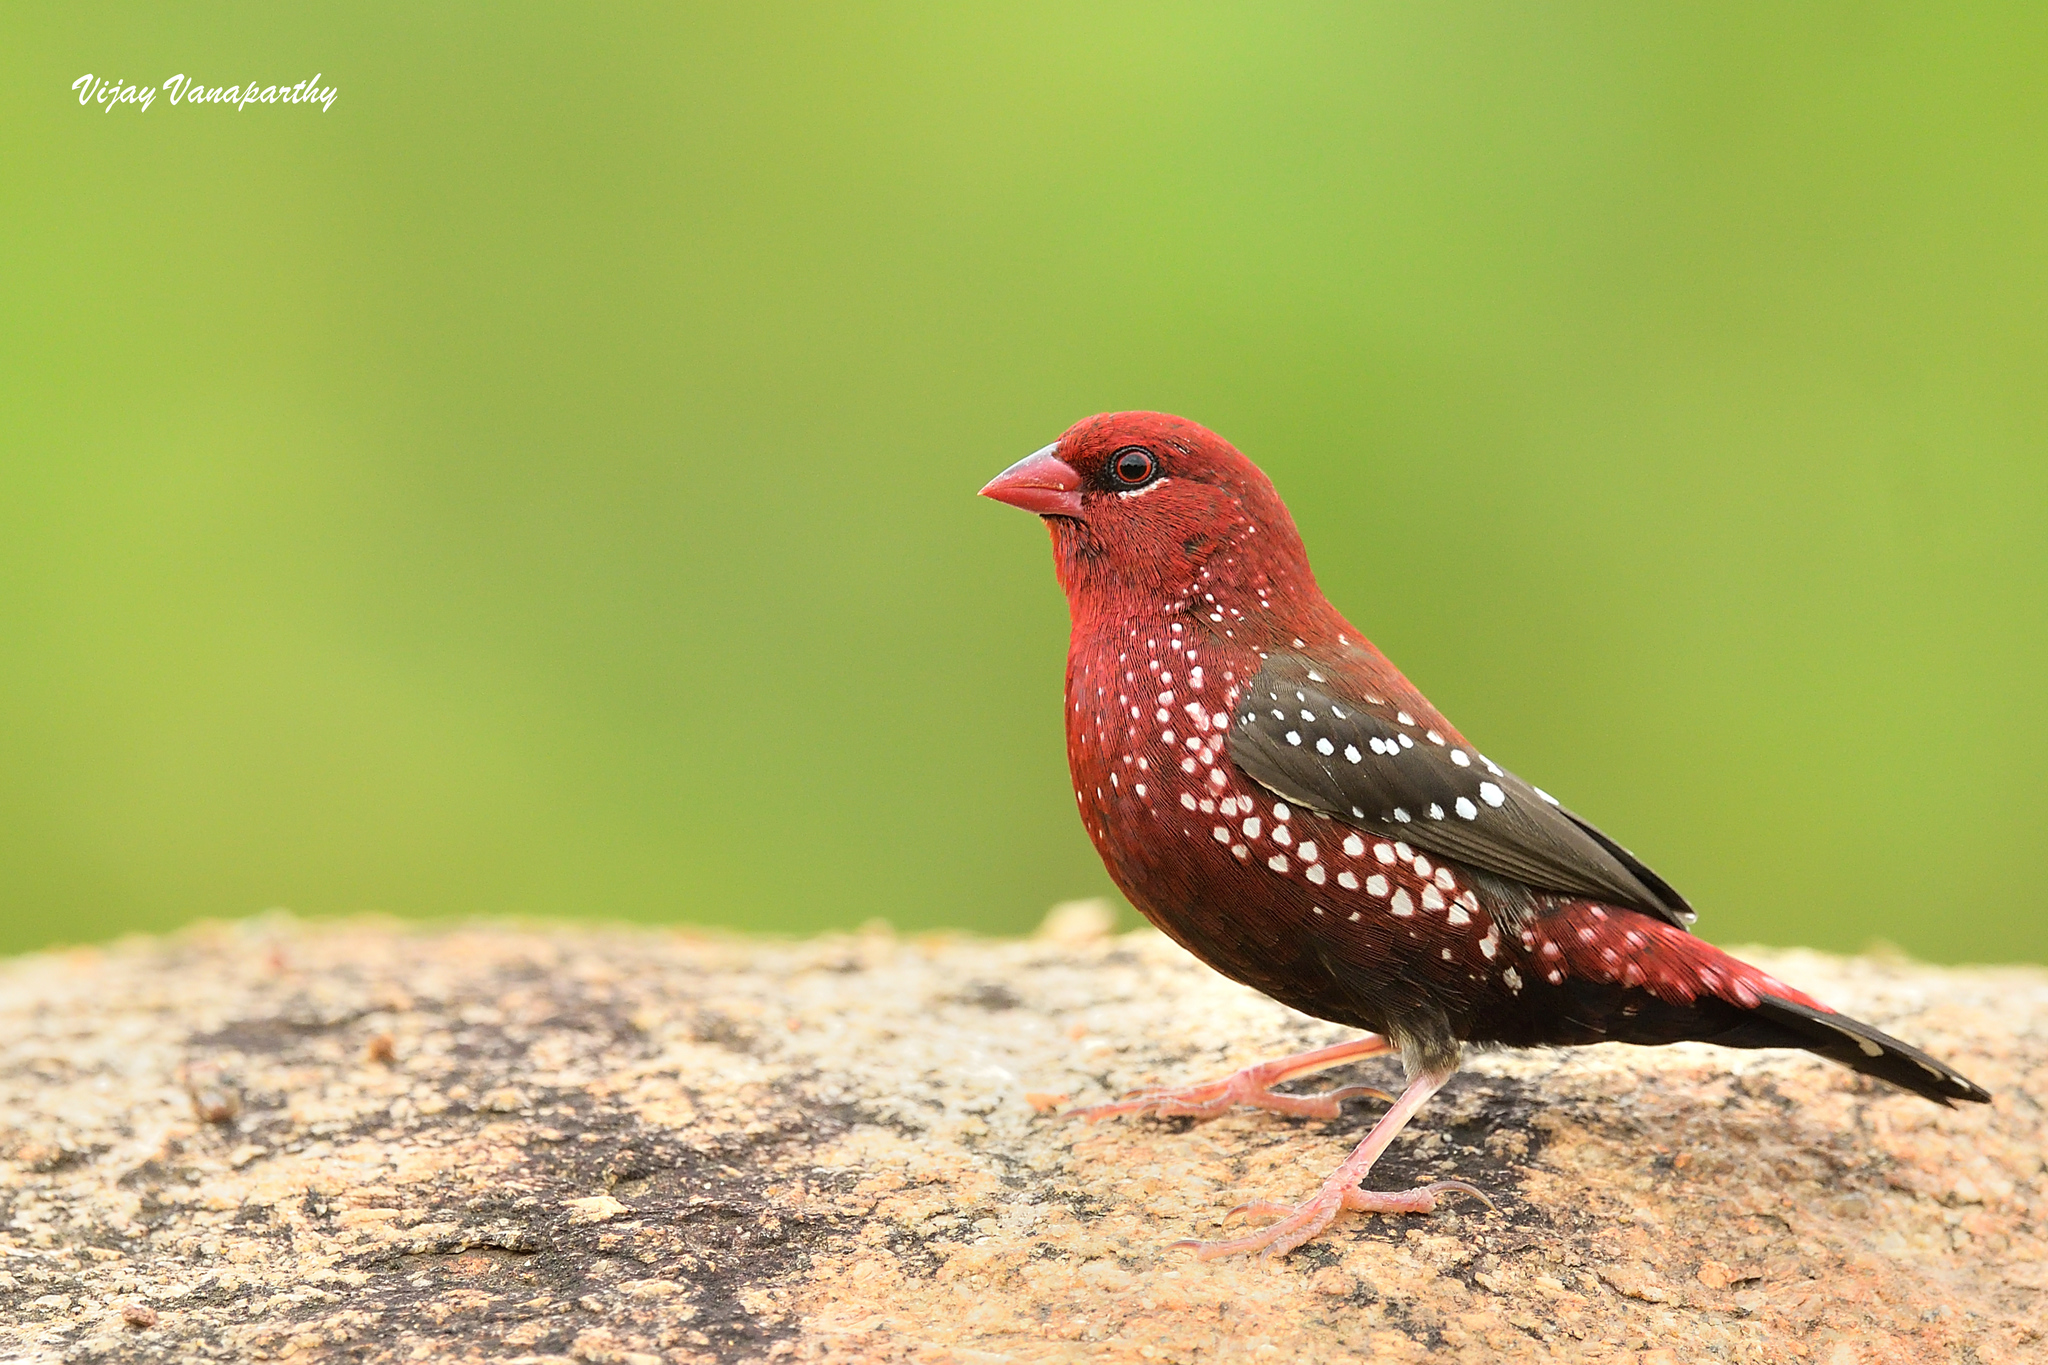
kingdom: Animalia
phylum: Chordata
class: Aves
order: Passeriformes
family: Estrildidae
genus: Amandava
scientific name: Amandava amandava
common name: Red avadavat
